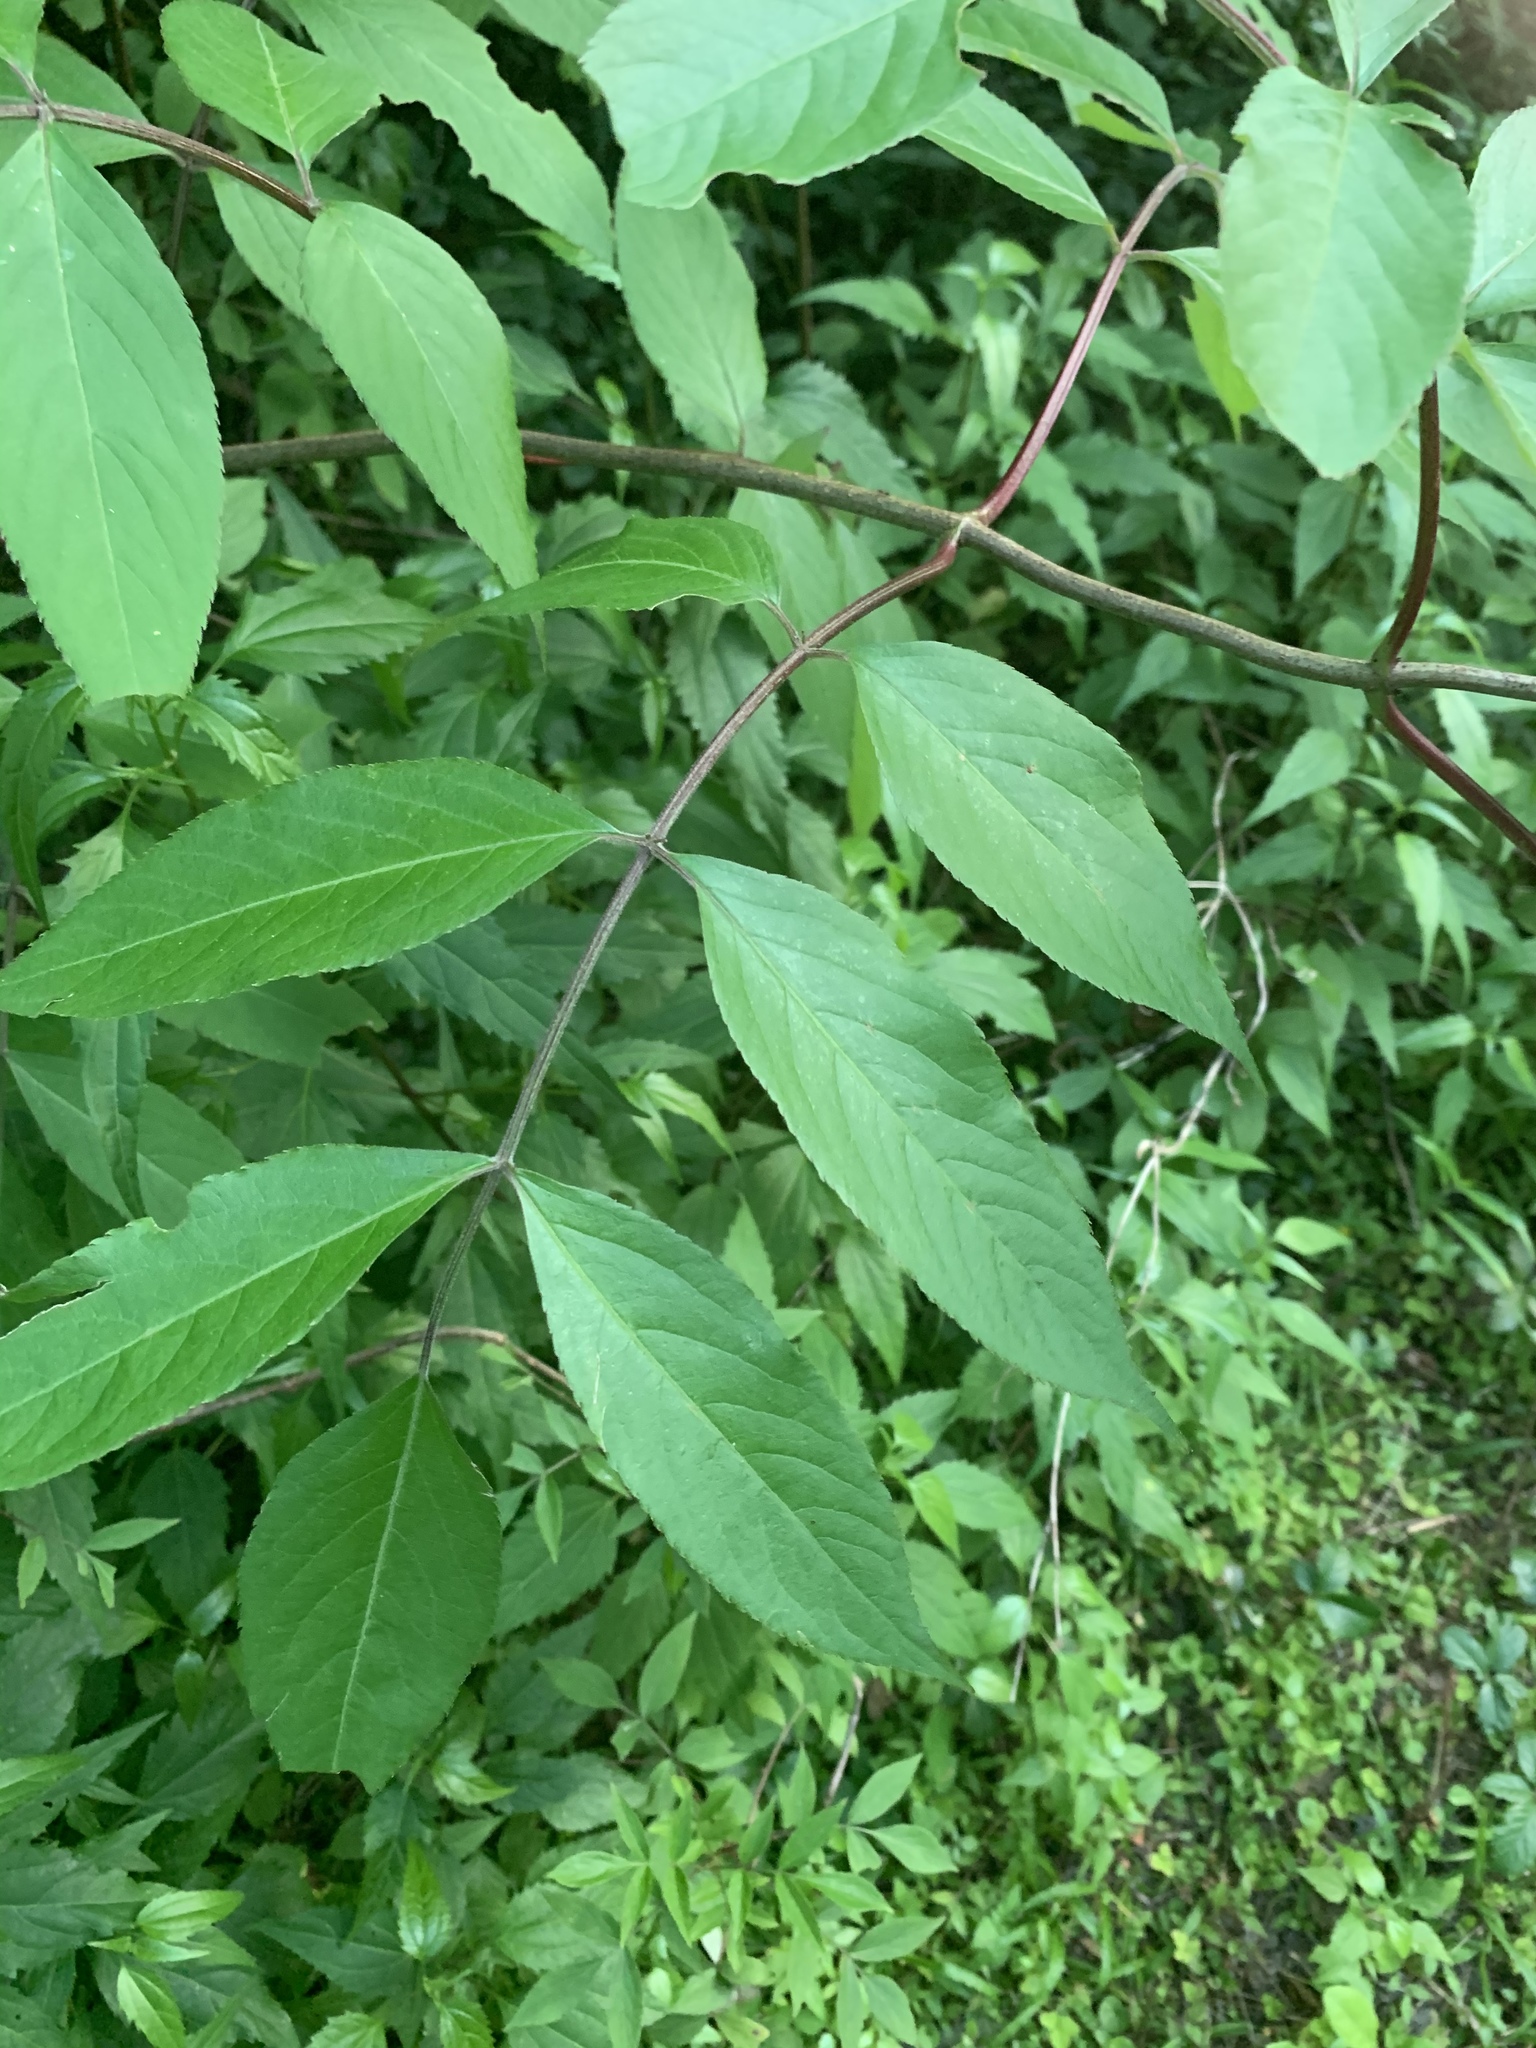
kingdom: Plantae
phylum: Tracheophyta
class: Magnoliopsida
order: Dipsacales
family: Viburnaceae
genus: Sambucus
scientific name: Sambucus canadensis
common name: American elder
